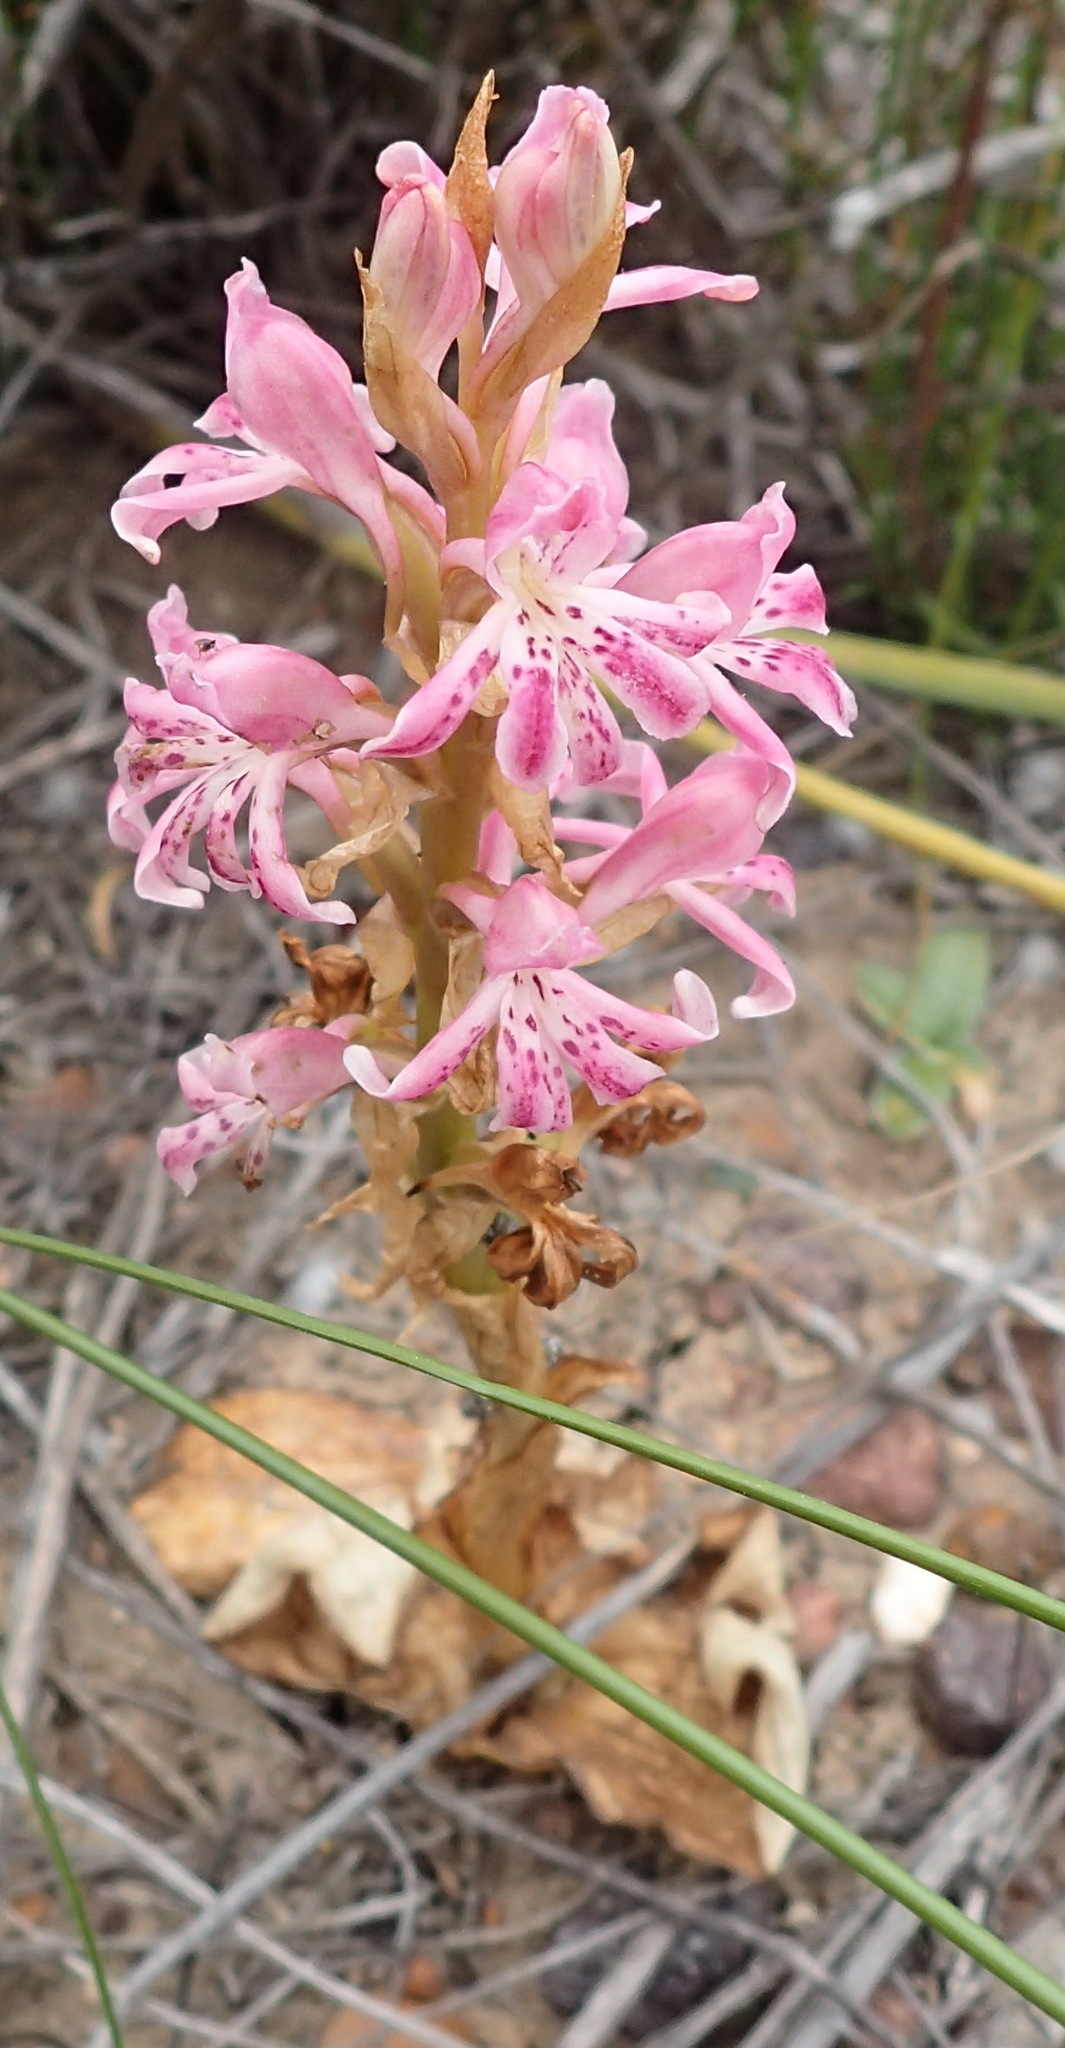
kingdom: Plantae
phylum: Tracheophyta
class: Liliopsida
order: Asparagales
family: Orchidaceae
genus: Satyrium
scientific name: Satyrium erectum
